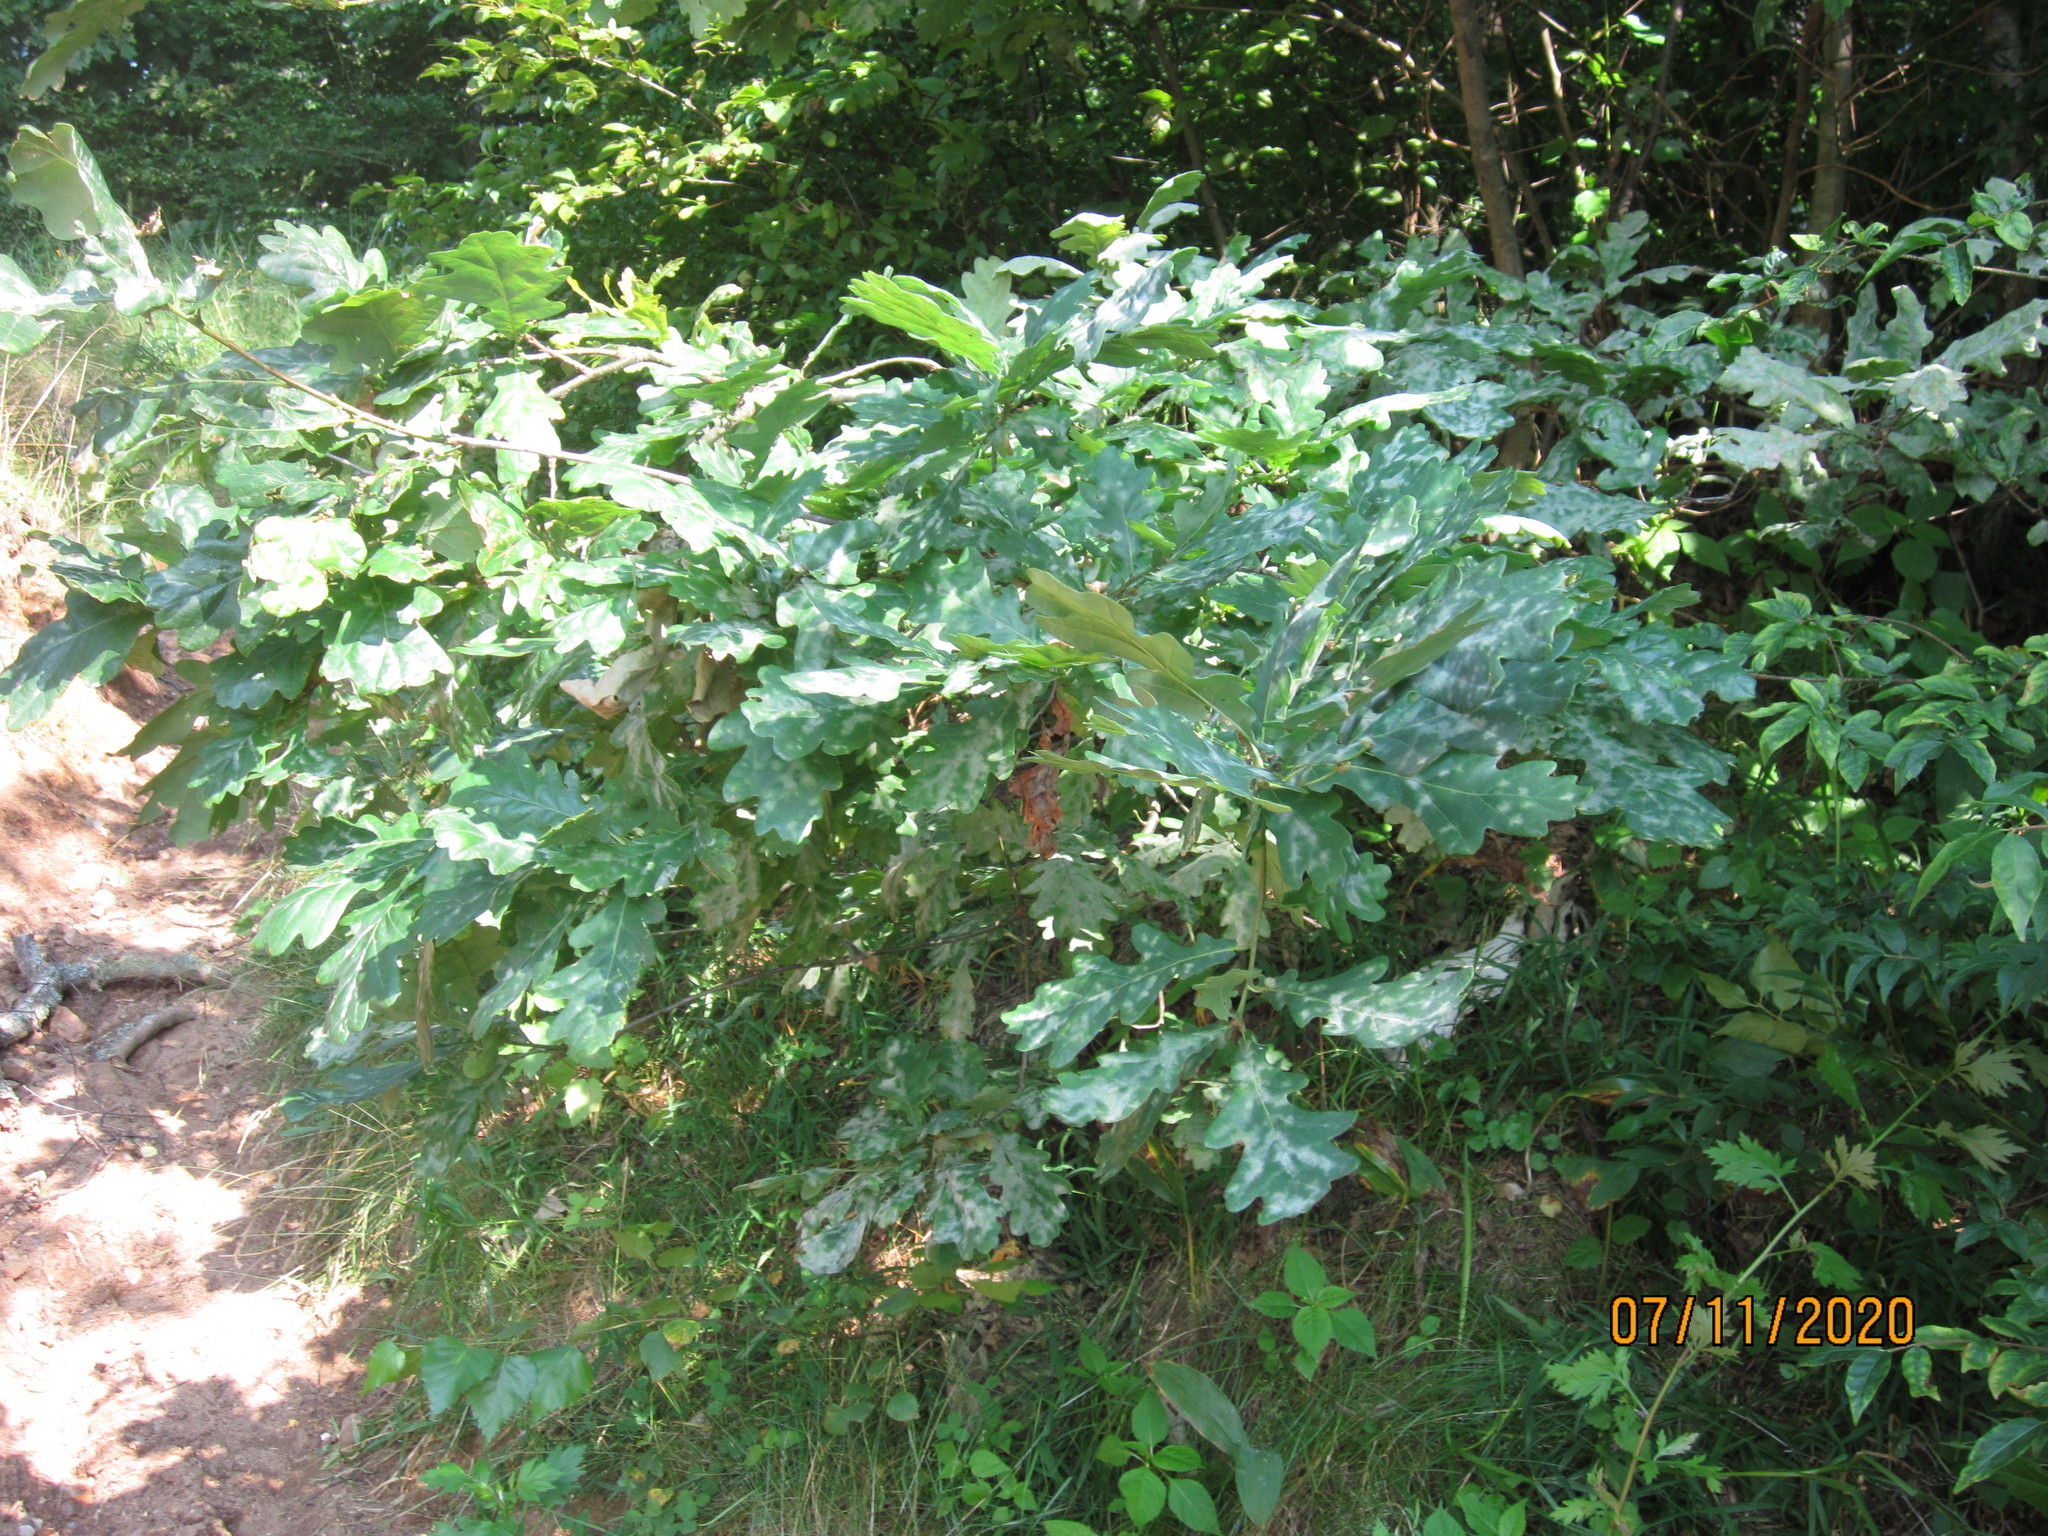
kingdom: Plantae
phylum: Tracheophyta
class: Magnoliopsida
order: Fagales
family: Fagaceae
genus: Quercus
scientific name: Quercus robur
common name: Pedunculate oak
